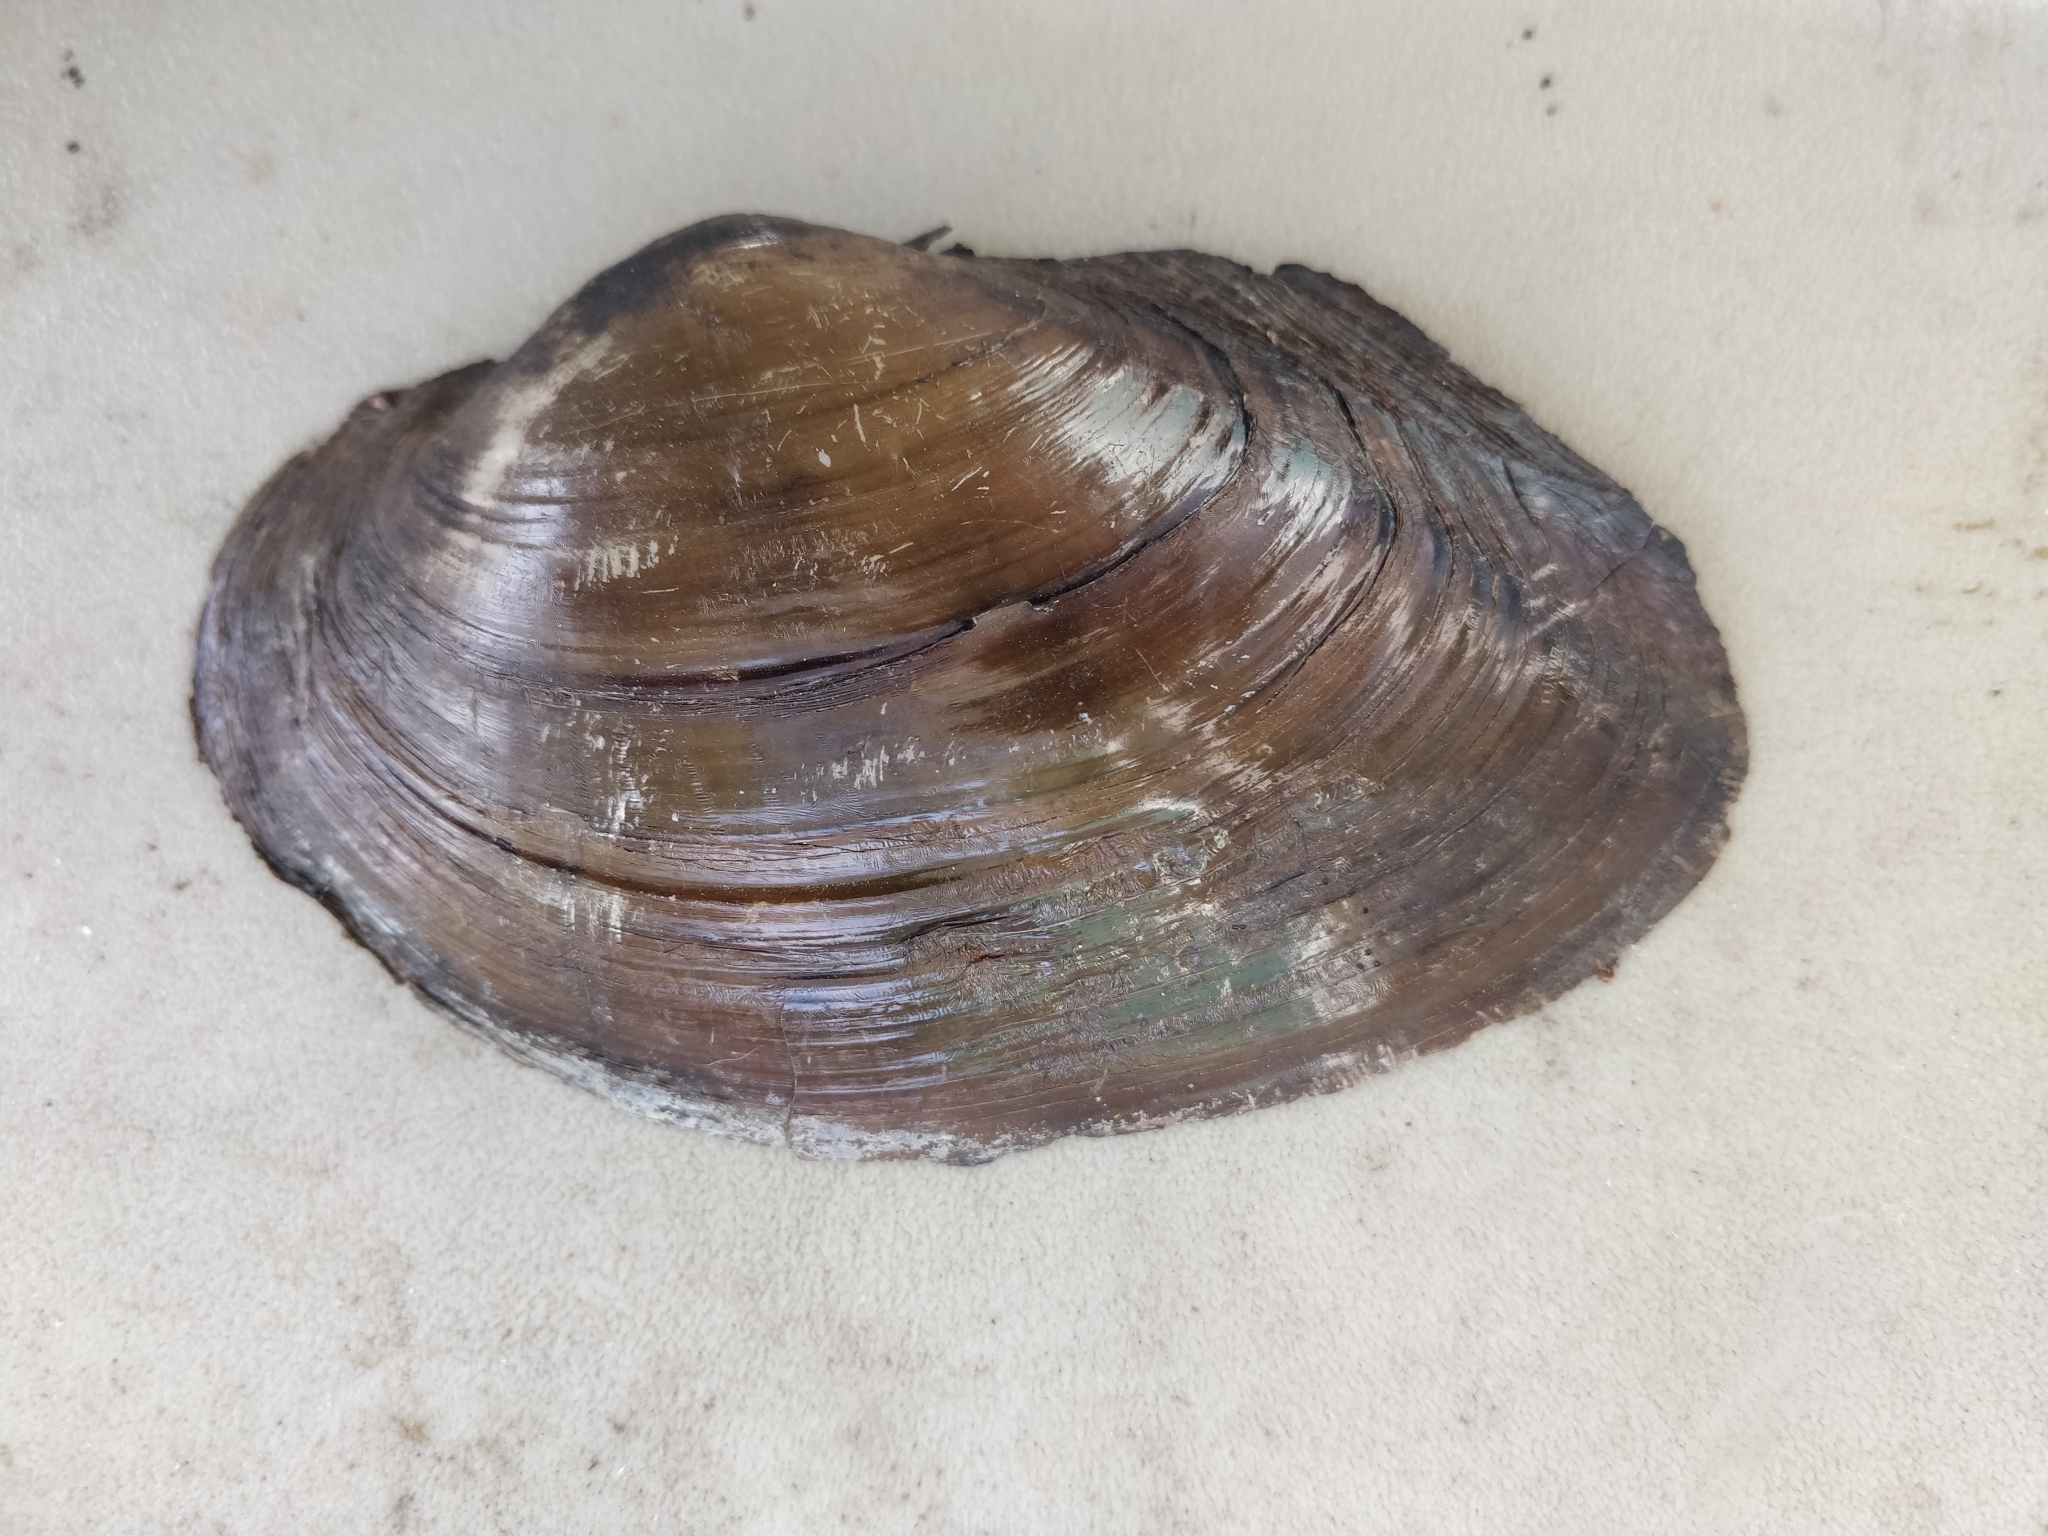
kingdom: Animalia
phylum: Mollusca
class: Bivalvia
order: Unionida
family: Unionidae
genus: Pyganodon
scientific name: Pyganodon grandis
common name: Giant floater
